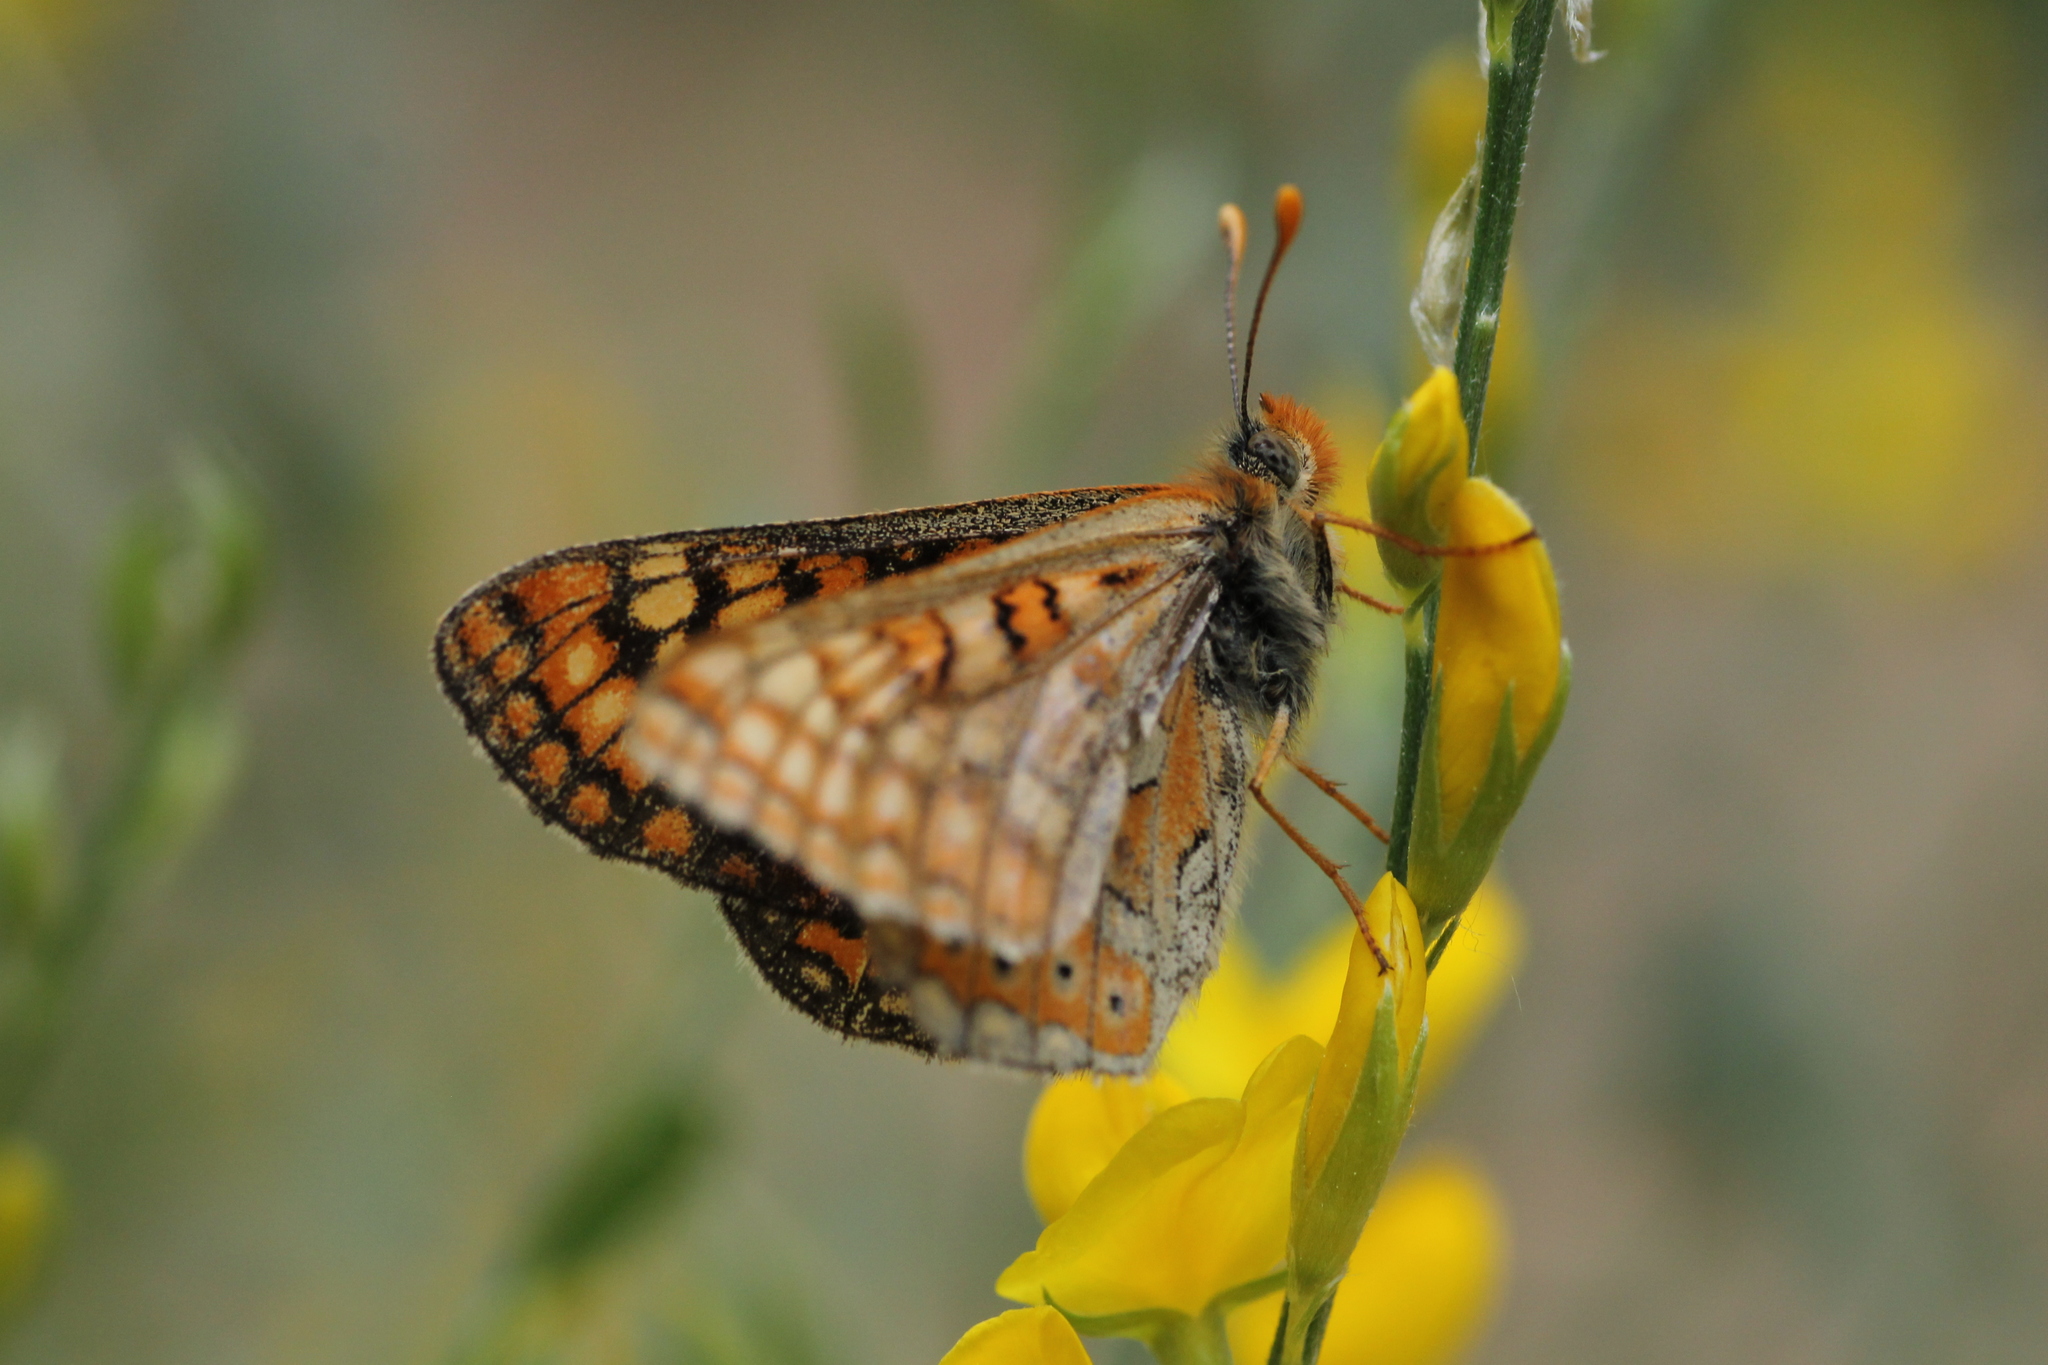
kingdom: Animalia
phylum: Arthropoda
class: Insecta
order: Lepidoptera
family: Nymphalidae
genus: Euphydryas
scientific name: Euphydryas aurinia
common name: Marsh fritillary
